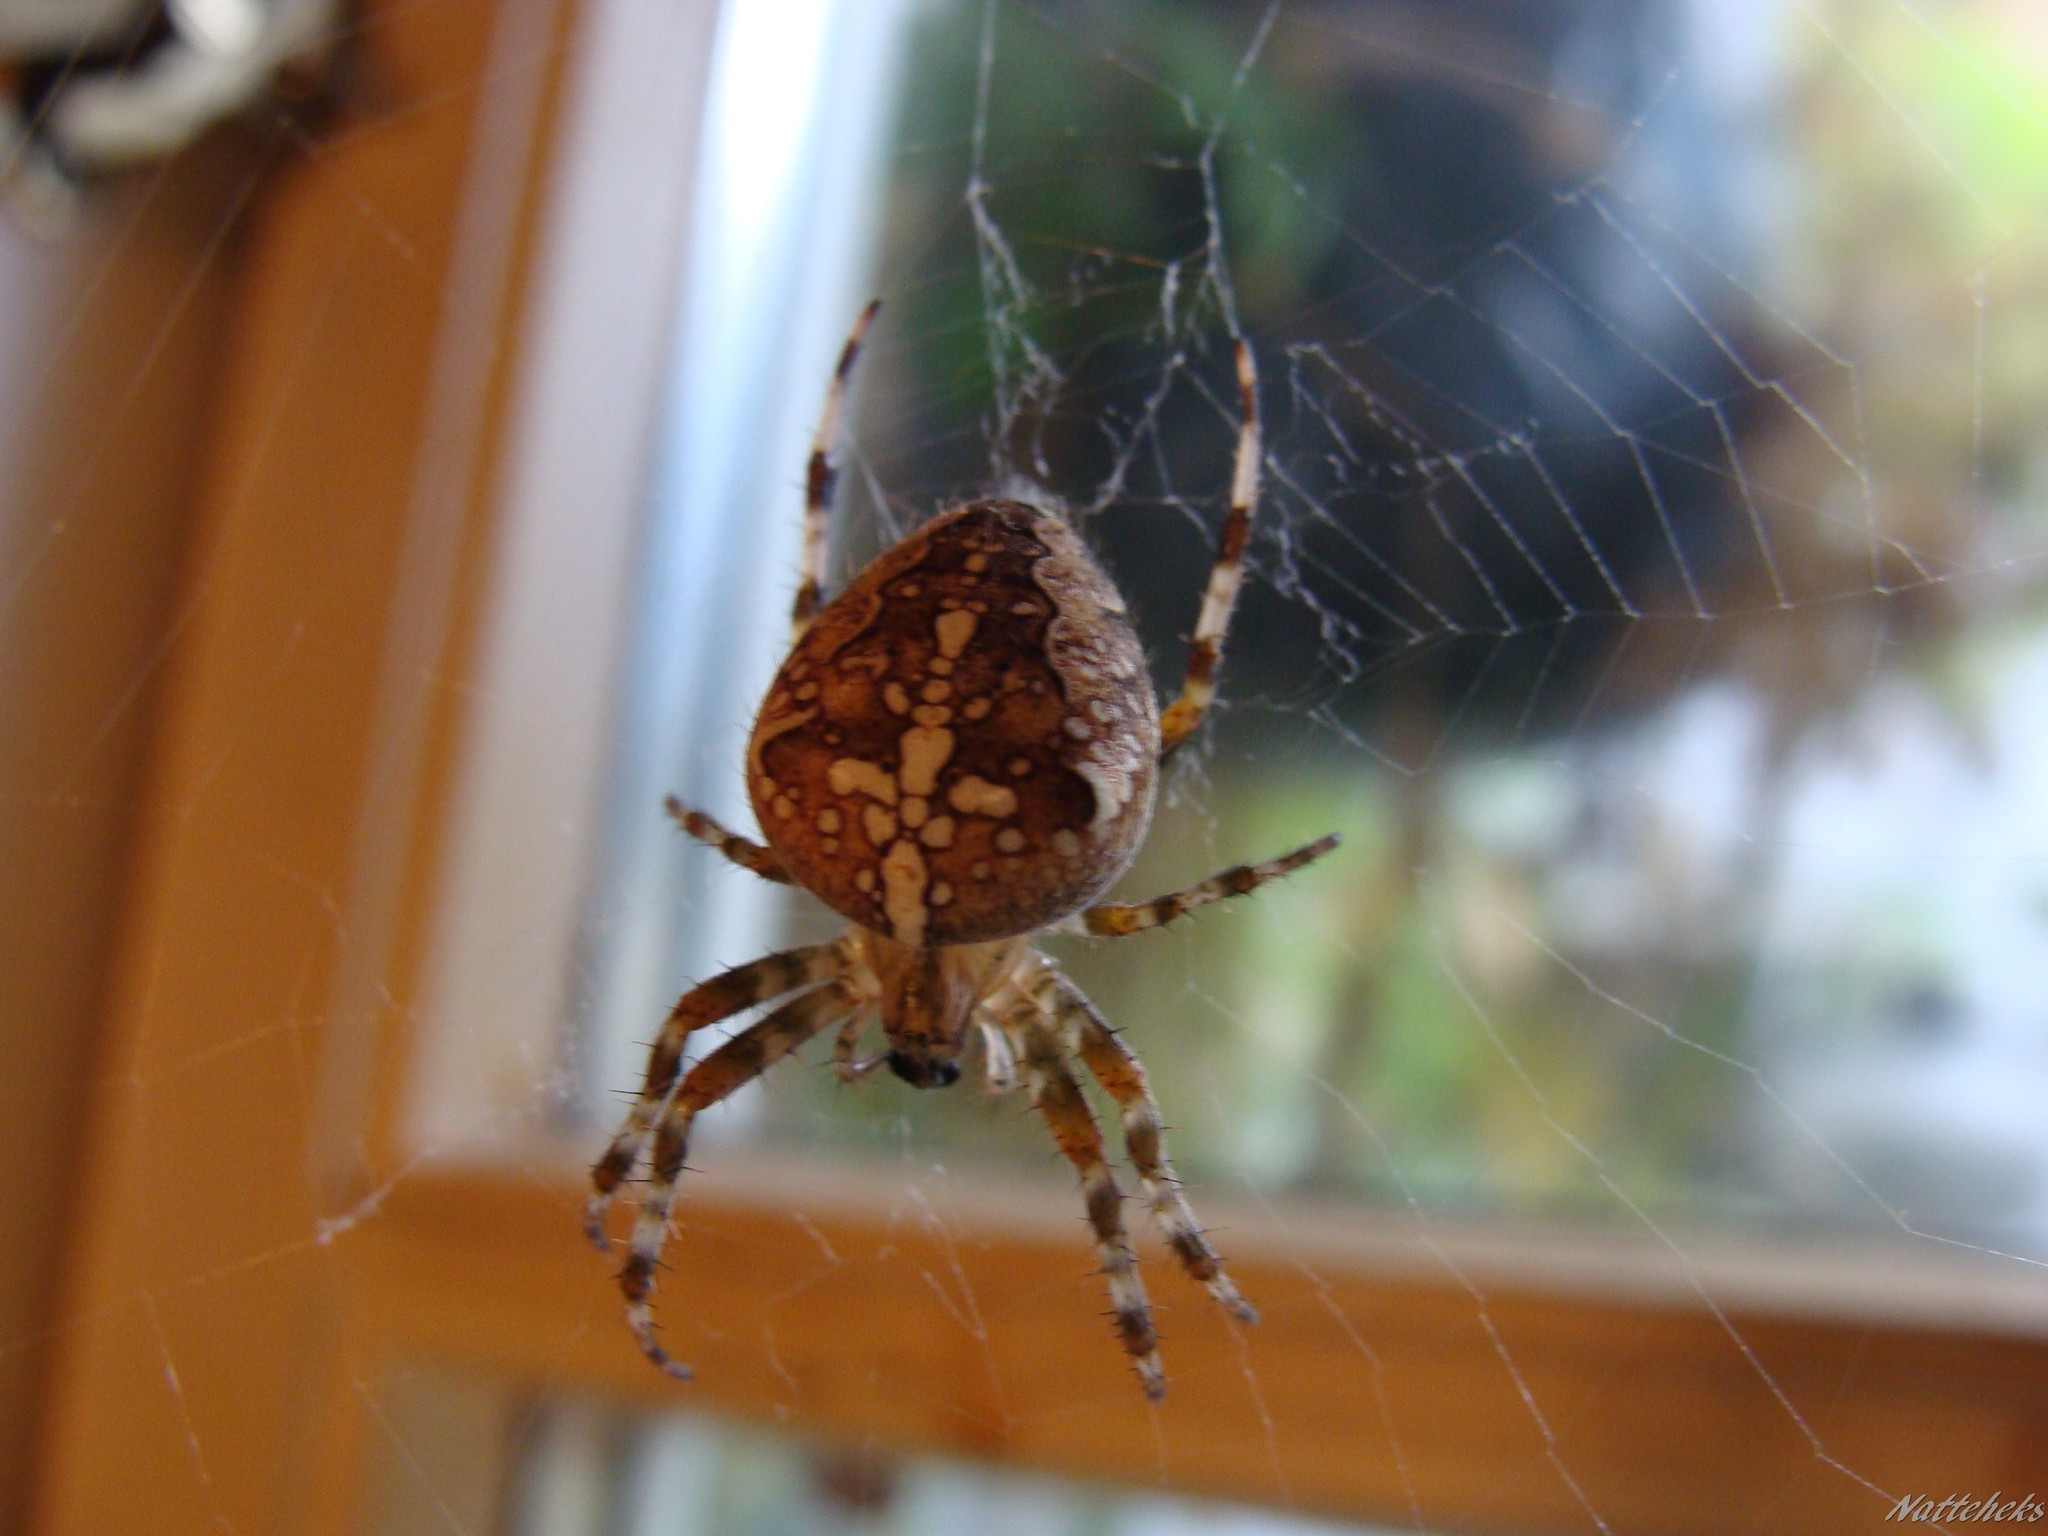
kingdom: Animalia
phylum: Arthropoda
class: Arachnida
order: Araneae
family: Araneidae
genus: Araneus
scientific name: Araneus diadematus
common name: Cross orbweaver
